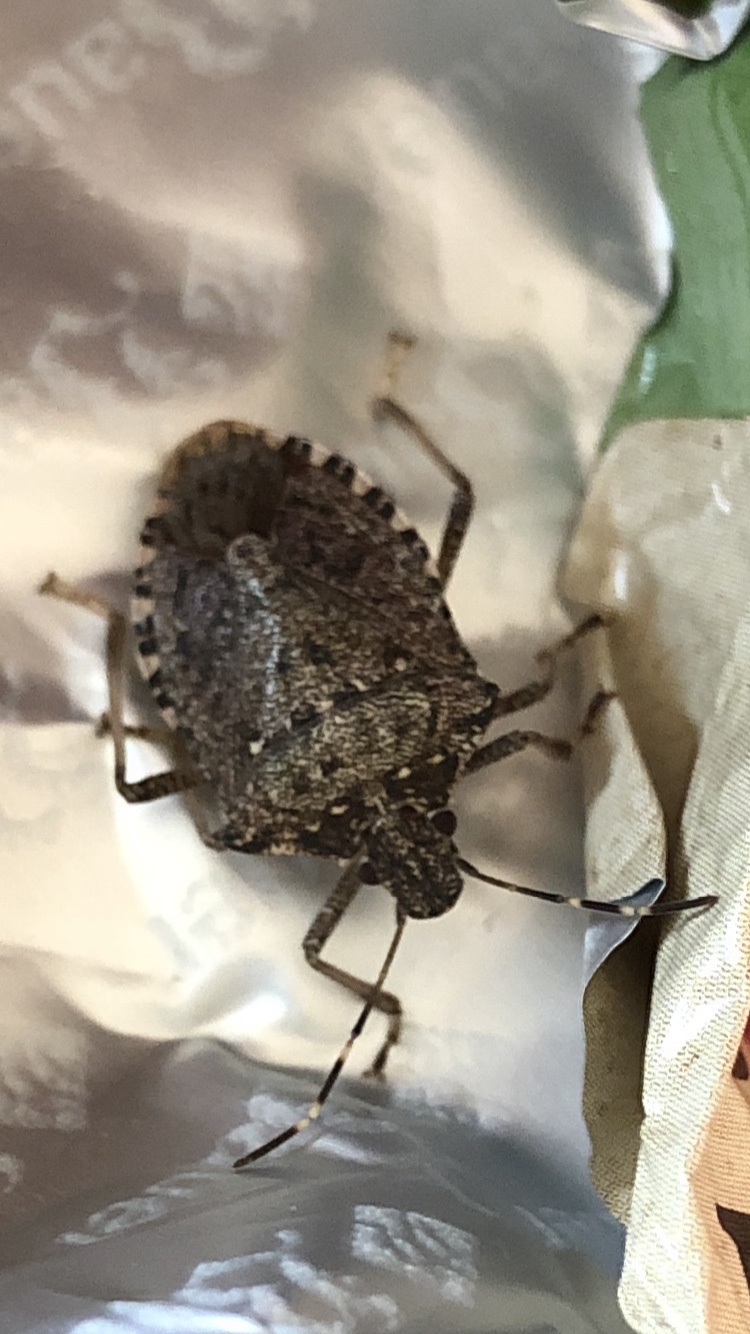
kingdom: Animalia
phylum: Arthropoda
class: Insecta
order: Hemiptera
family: Pentatomidae
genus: Halyomorpha
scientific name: Halyomorpha halys
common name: Brown marmorated stink bug
